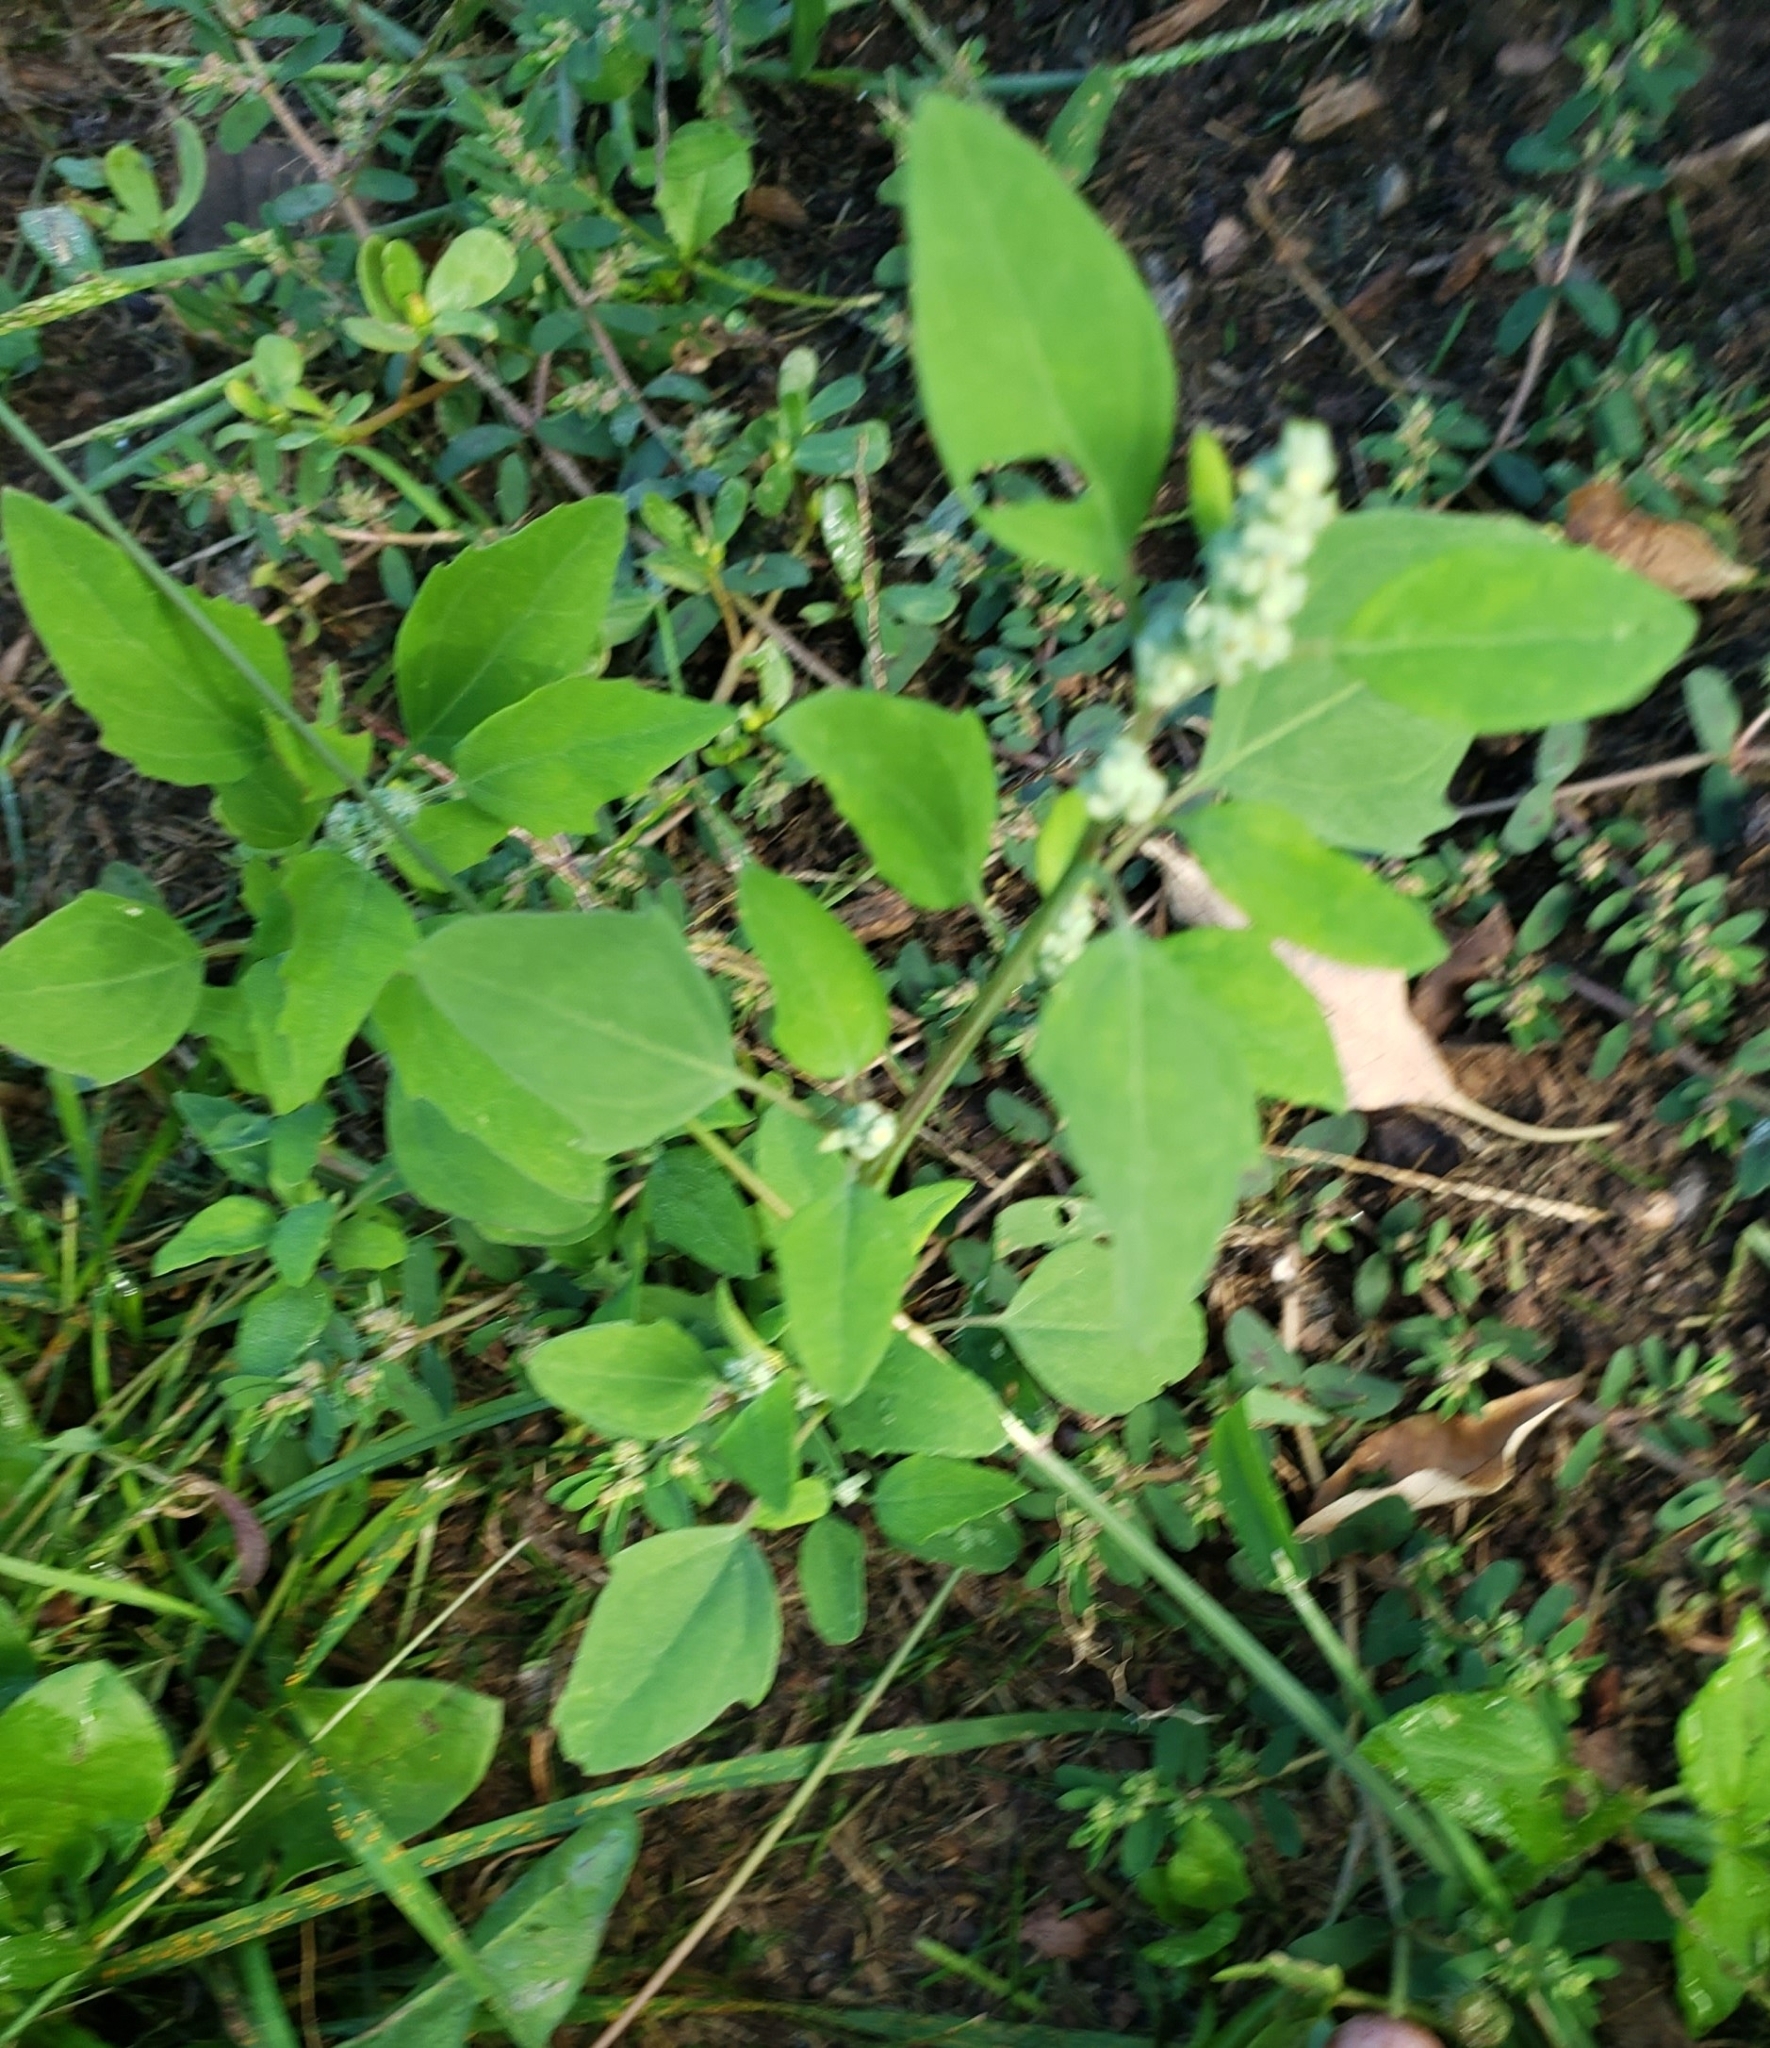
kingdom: Plantae
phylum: Tracheophyta
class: Magnoliopsida
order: Caryophyllales
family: Amaranthaceae
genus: Chenopodium
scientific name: Chenopodium album
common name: Fat-hen
